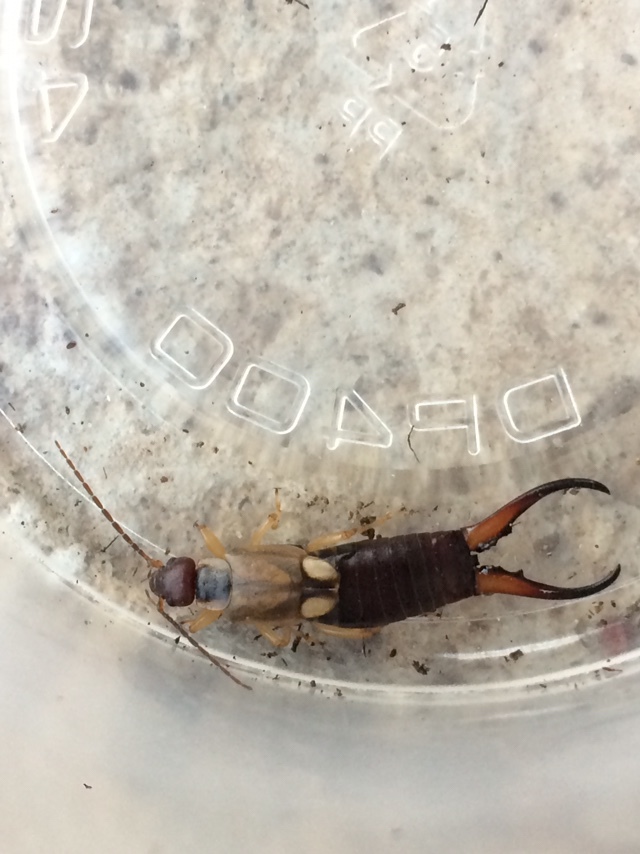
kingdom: Animalia
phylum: Arthropoda
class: Insecta
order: Dermaptera
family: Forficulidae
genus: Forficula
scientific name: Forficula
